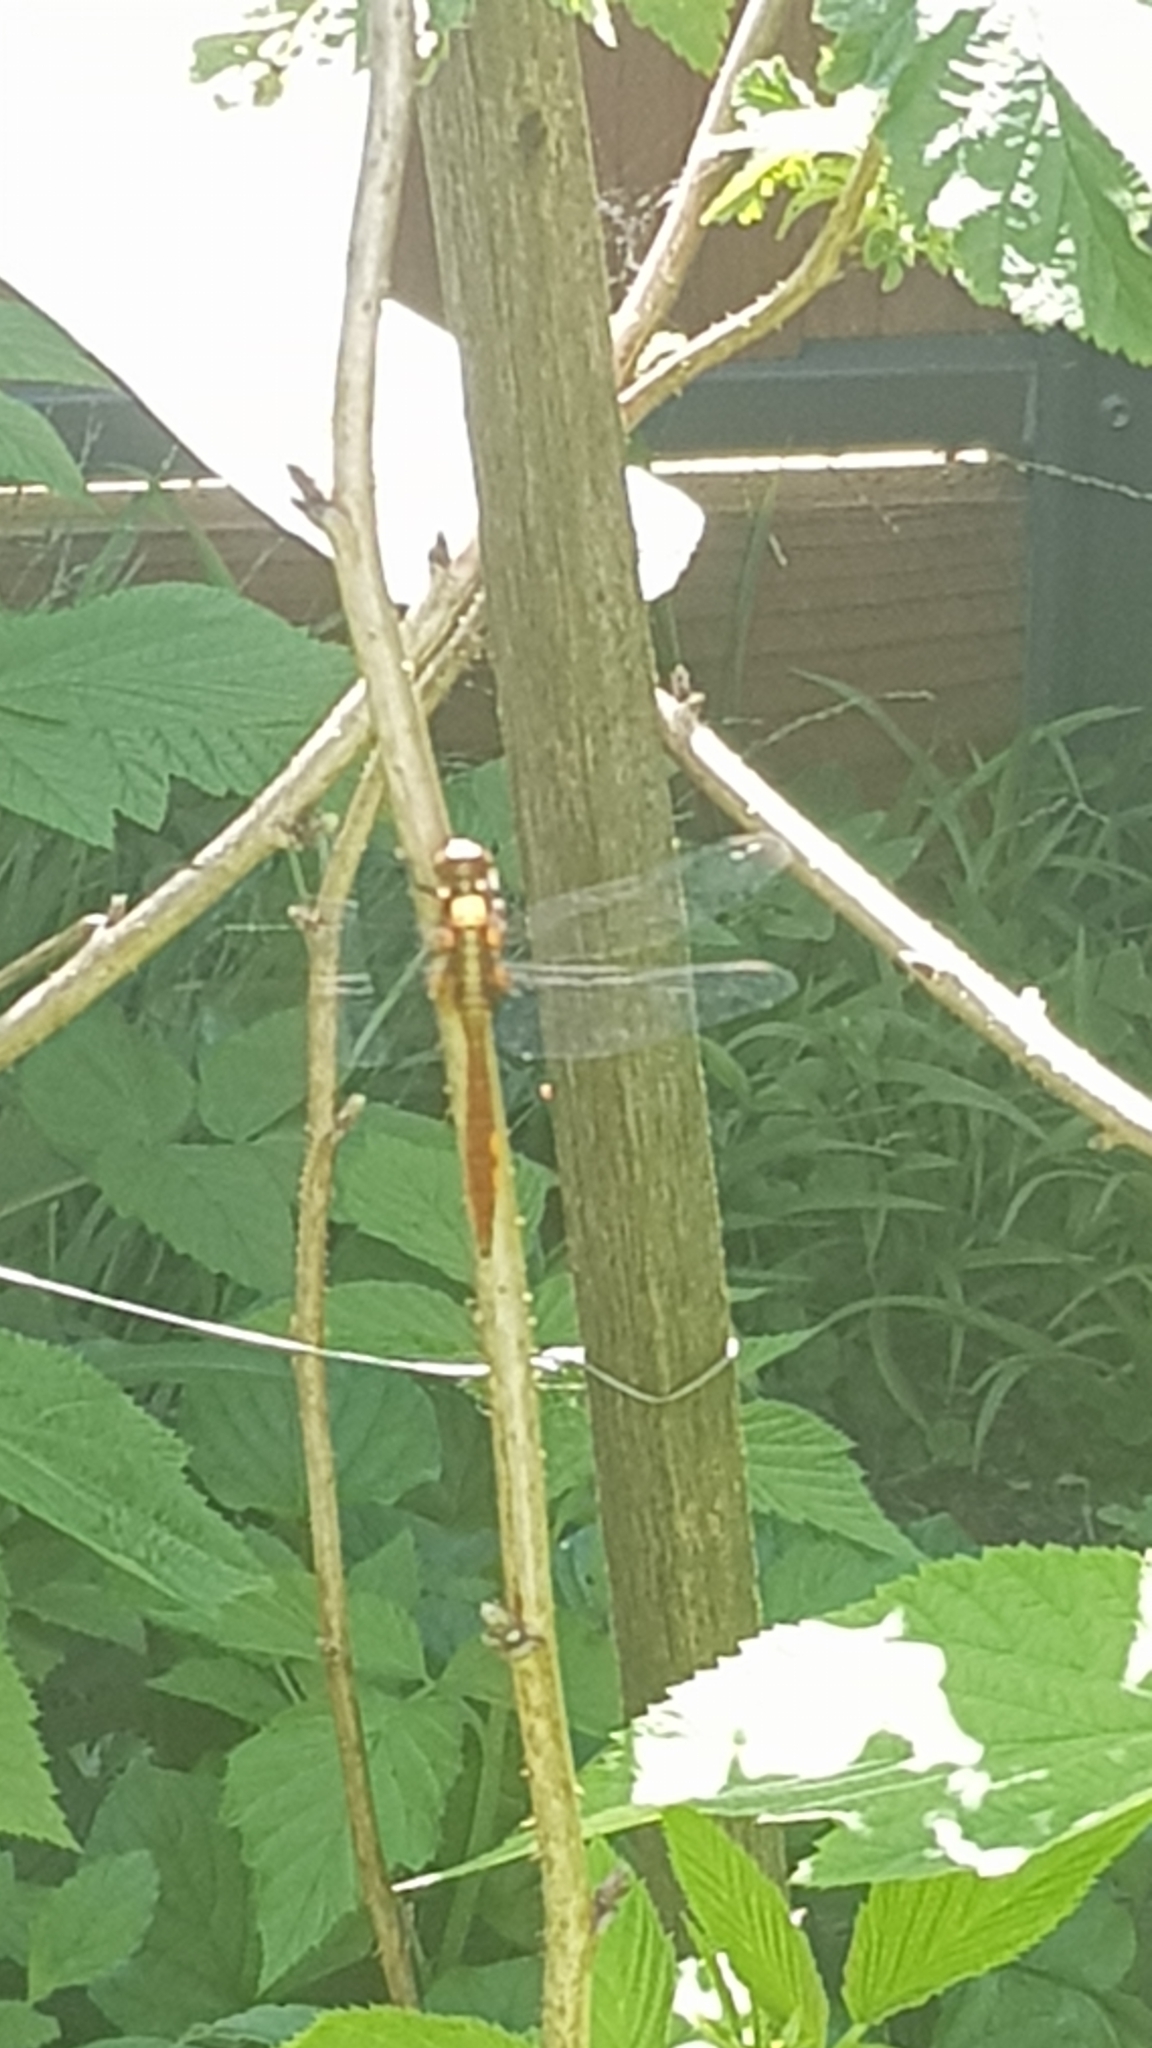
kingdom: Animalia
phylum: Arthropoda
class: Insecta
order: Odonata
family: Libellulidae
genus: Orthetrum
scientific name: Orthetrum villosovittatum
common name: Firery skimmer
